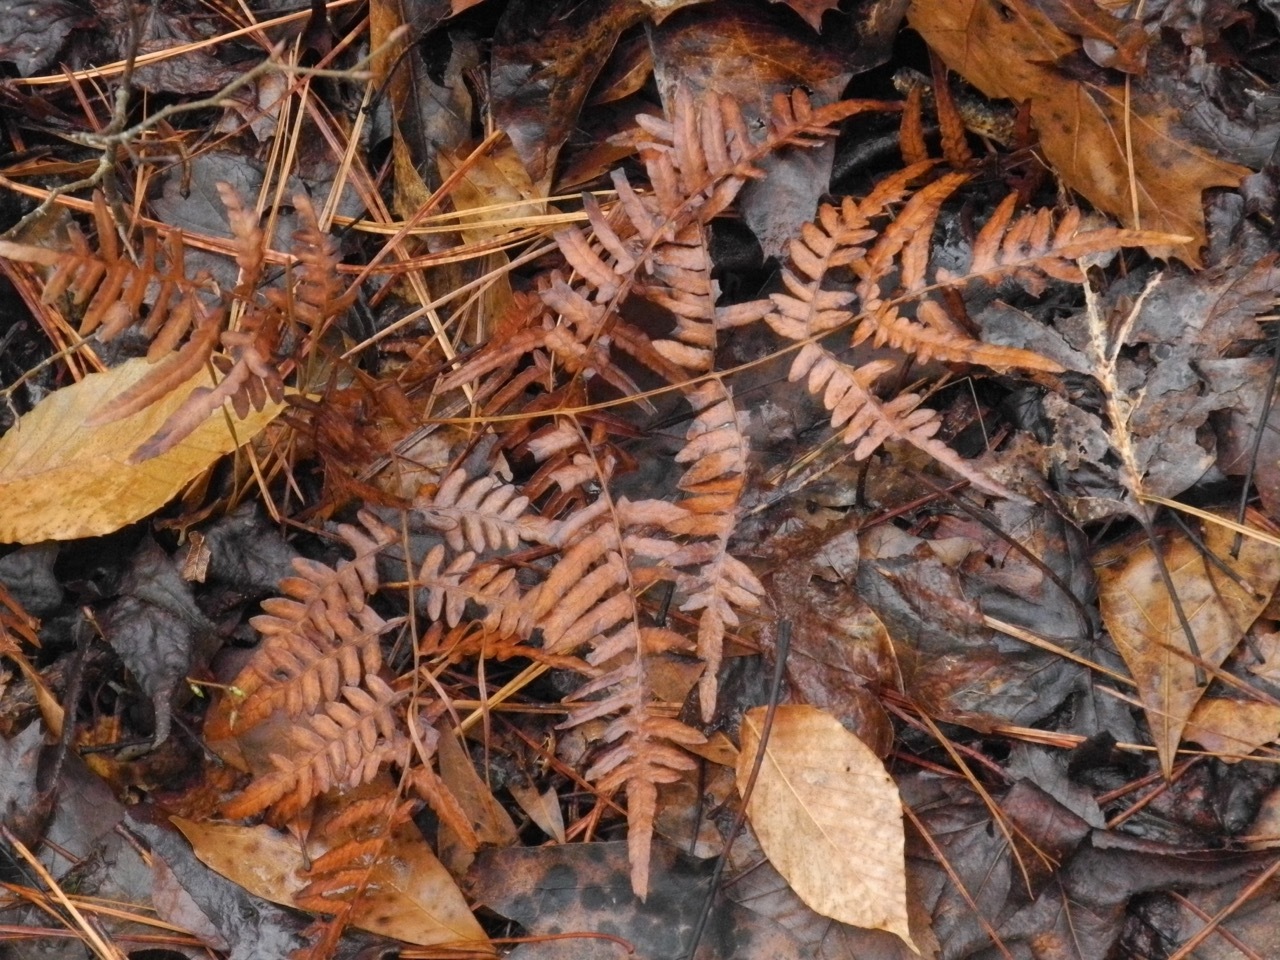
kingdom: Plantae
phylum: Tracheophyta
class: Polypodiopsida
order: Polypodiales
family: Dennstaedtiaceae
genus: Pteridium
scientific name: Pteridium
